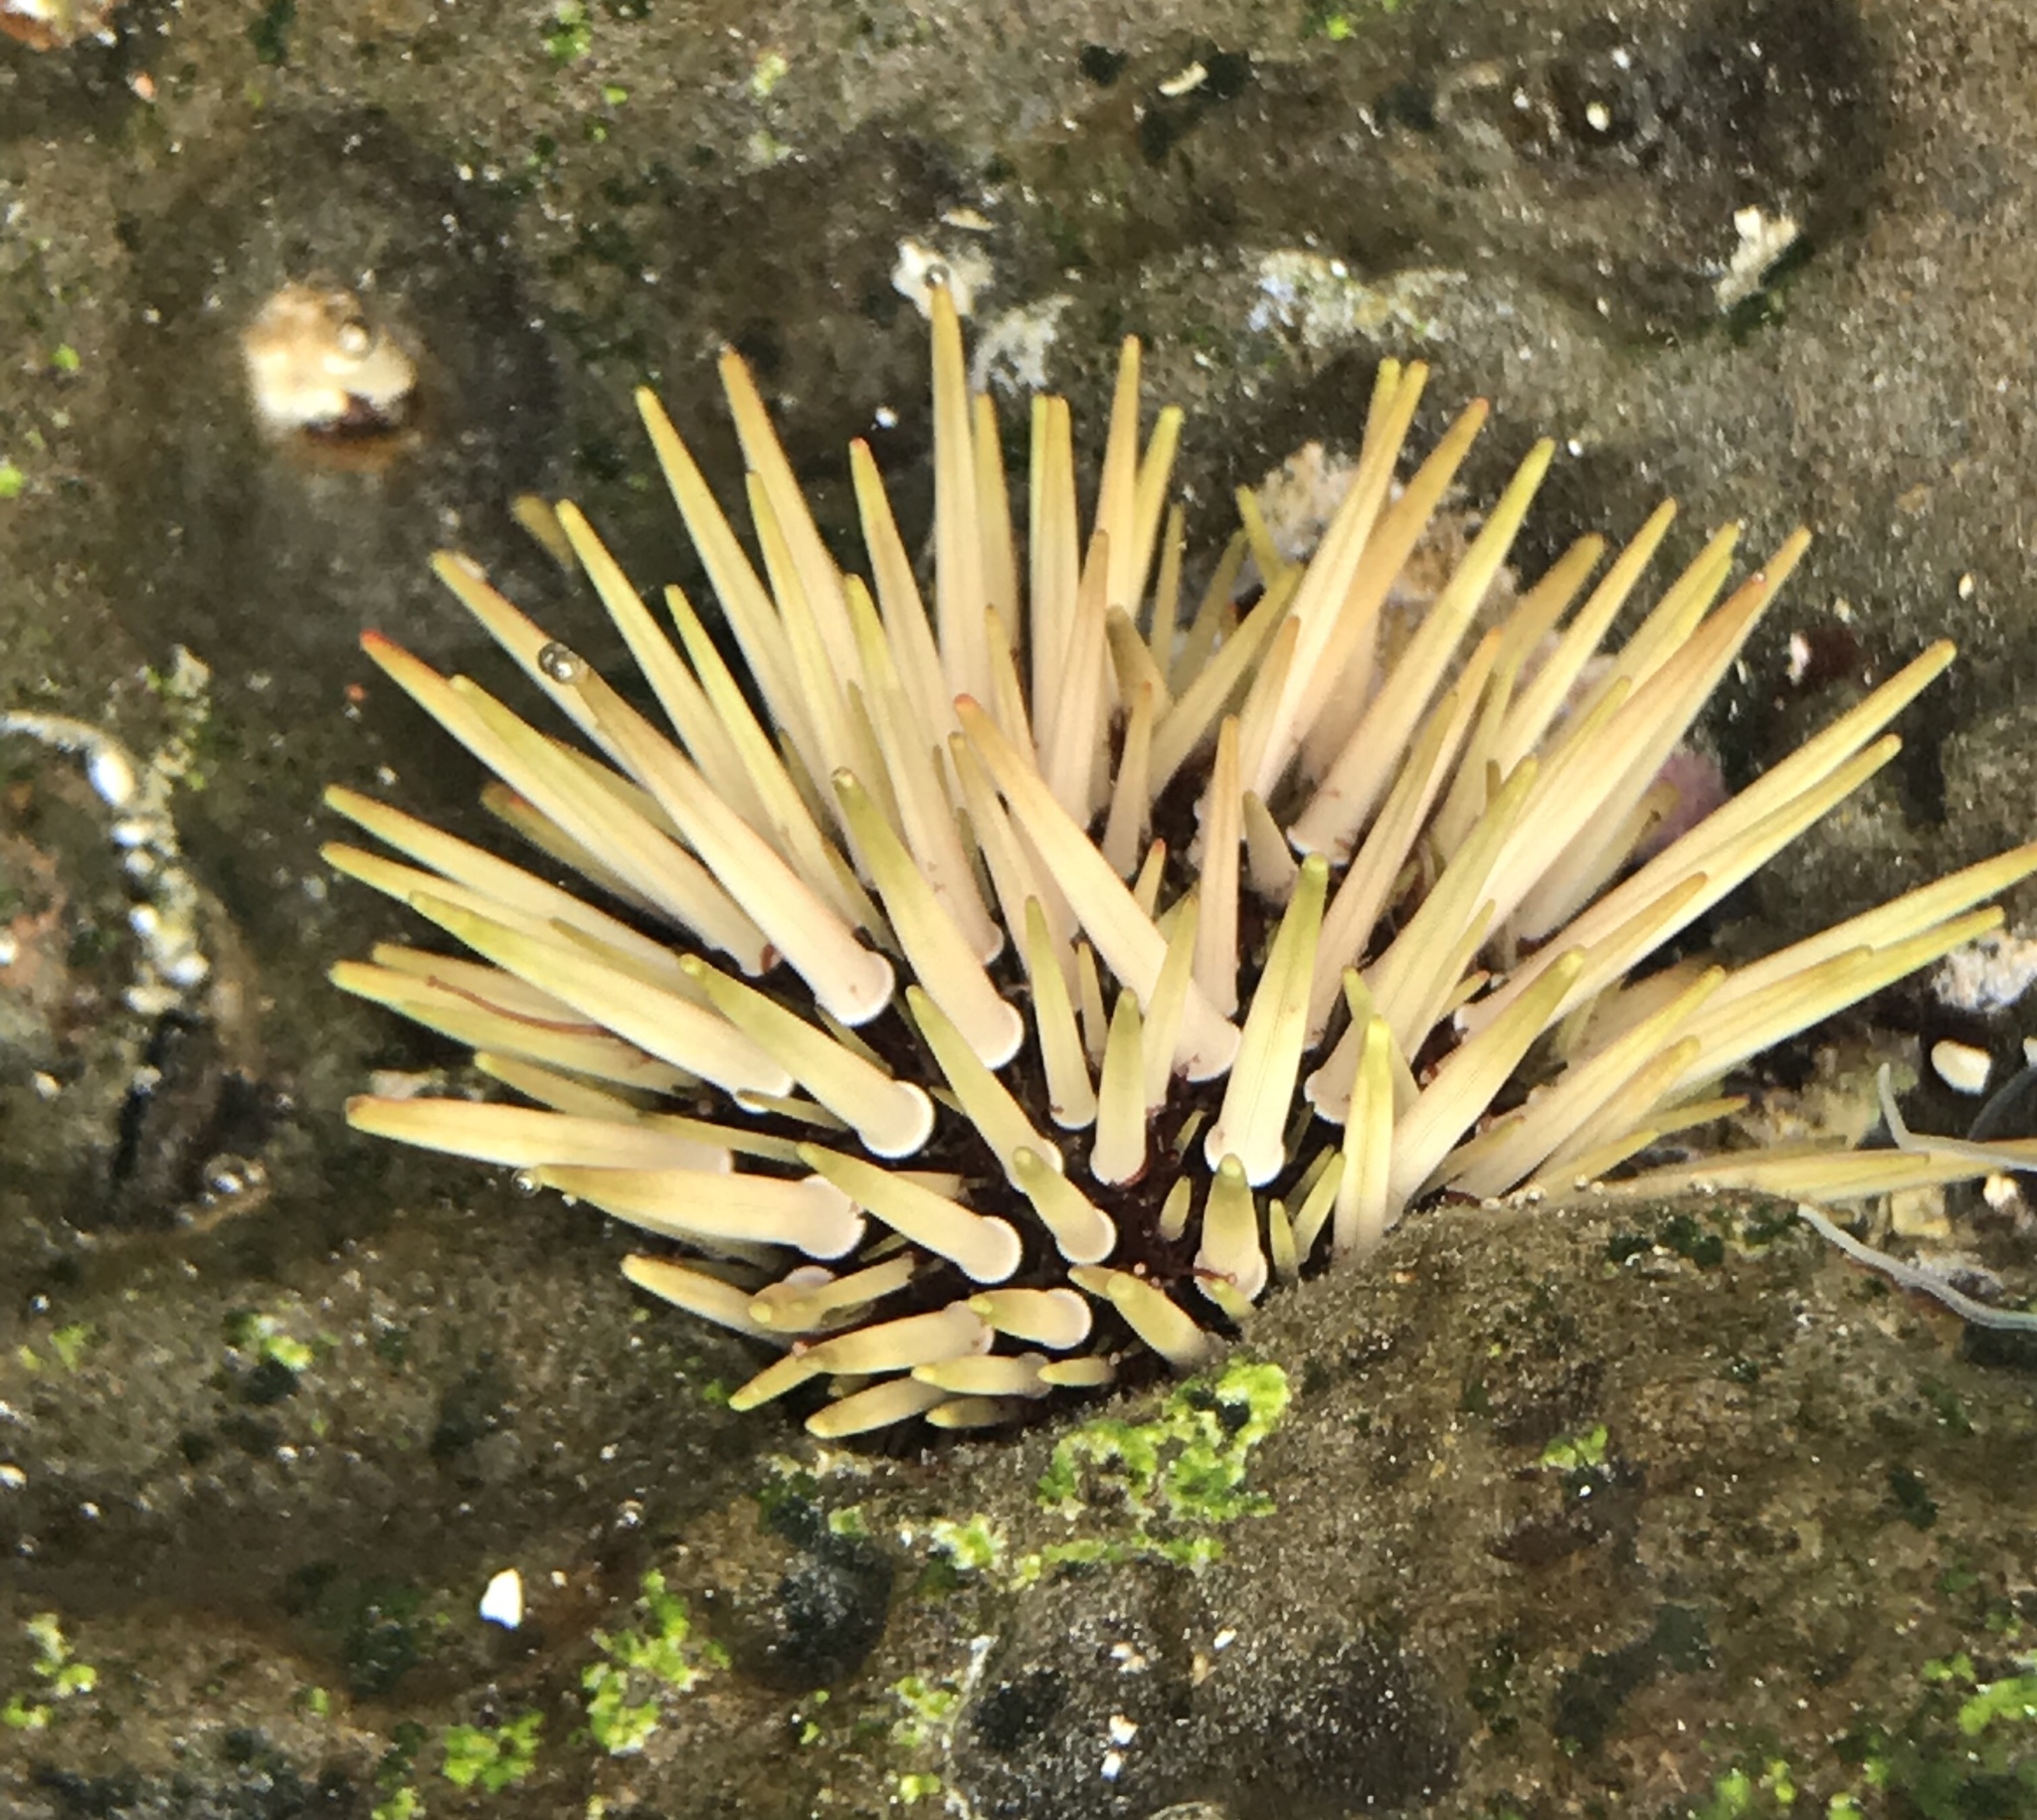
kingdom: Animalia
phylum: Echinodermata
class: Echinoidea
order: Camarodonta
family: Echinometridae
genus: Echinometra
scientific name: Echinometra mathaei
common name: Rock-boring urchin
